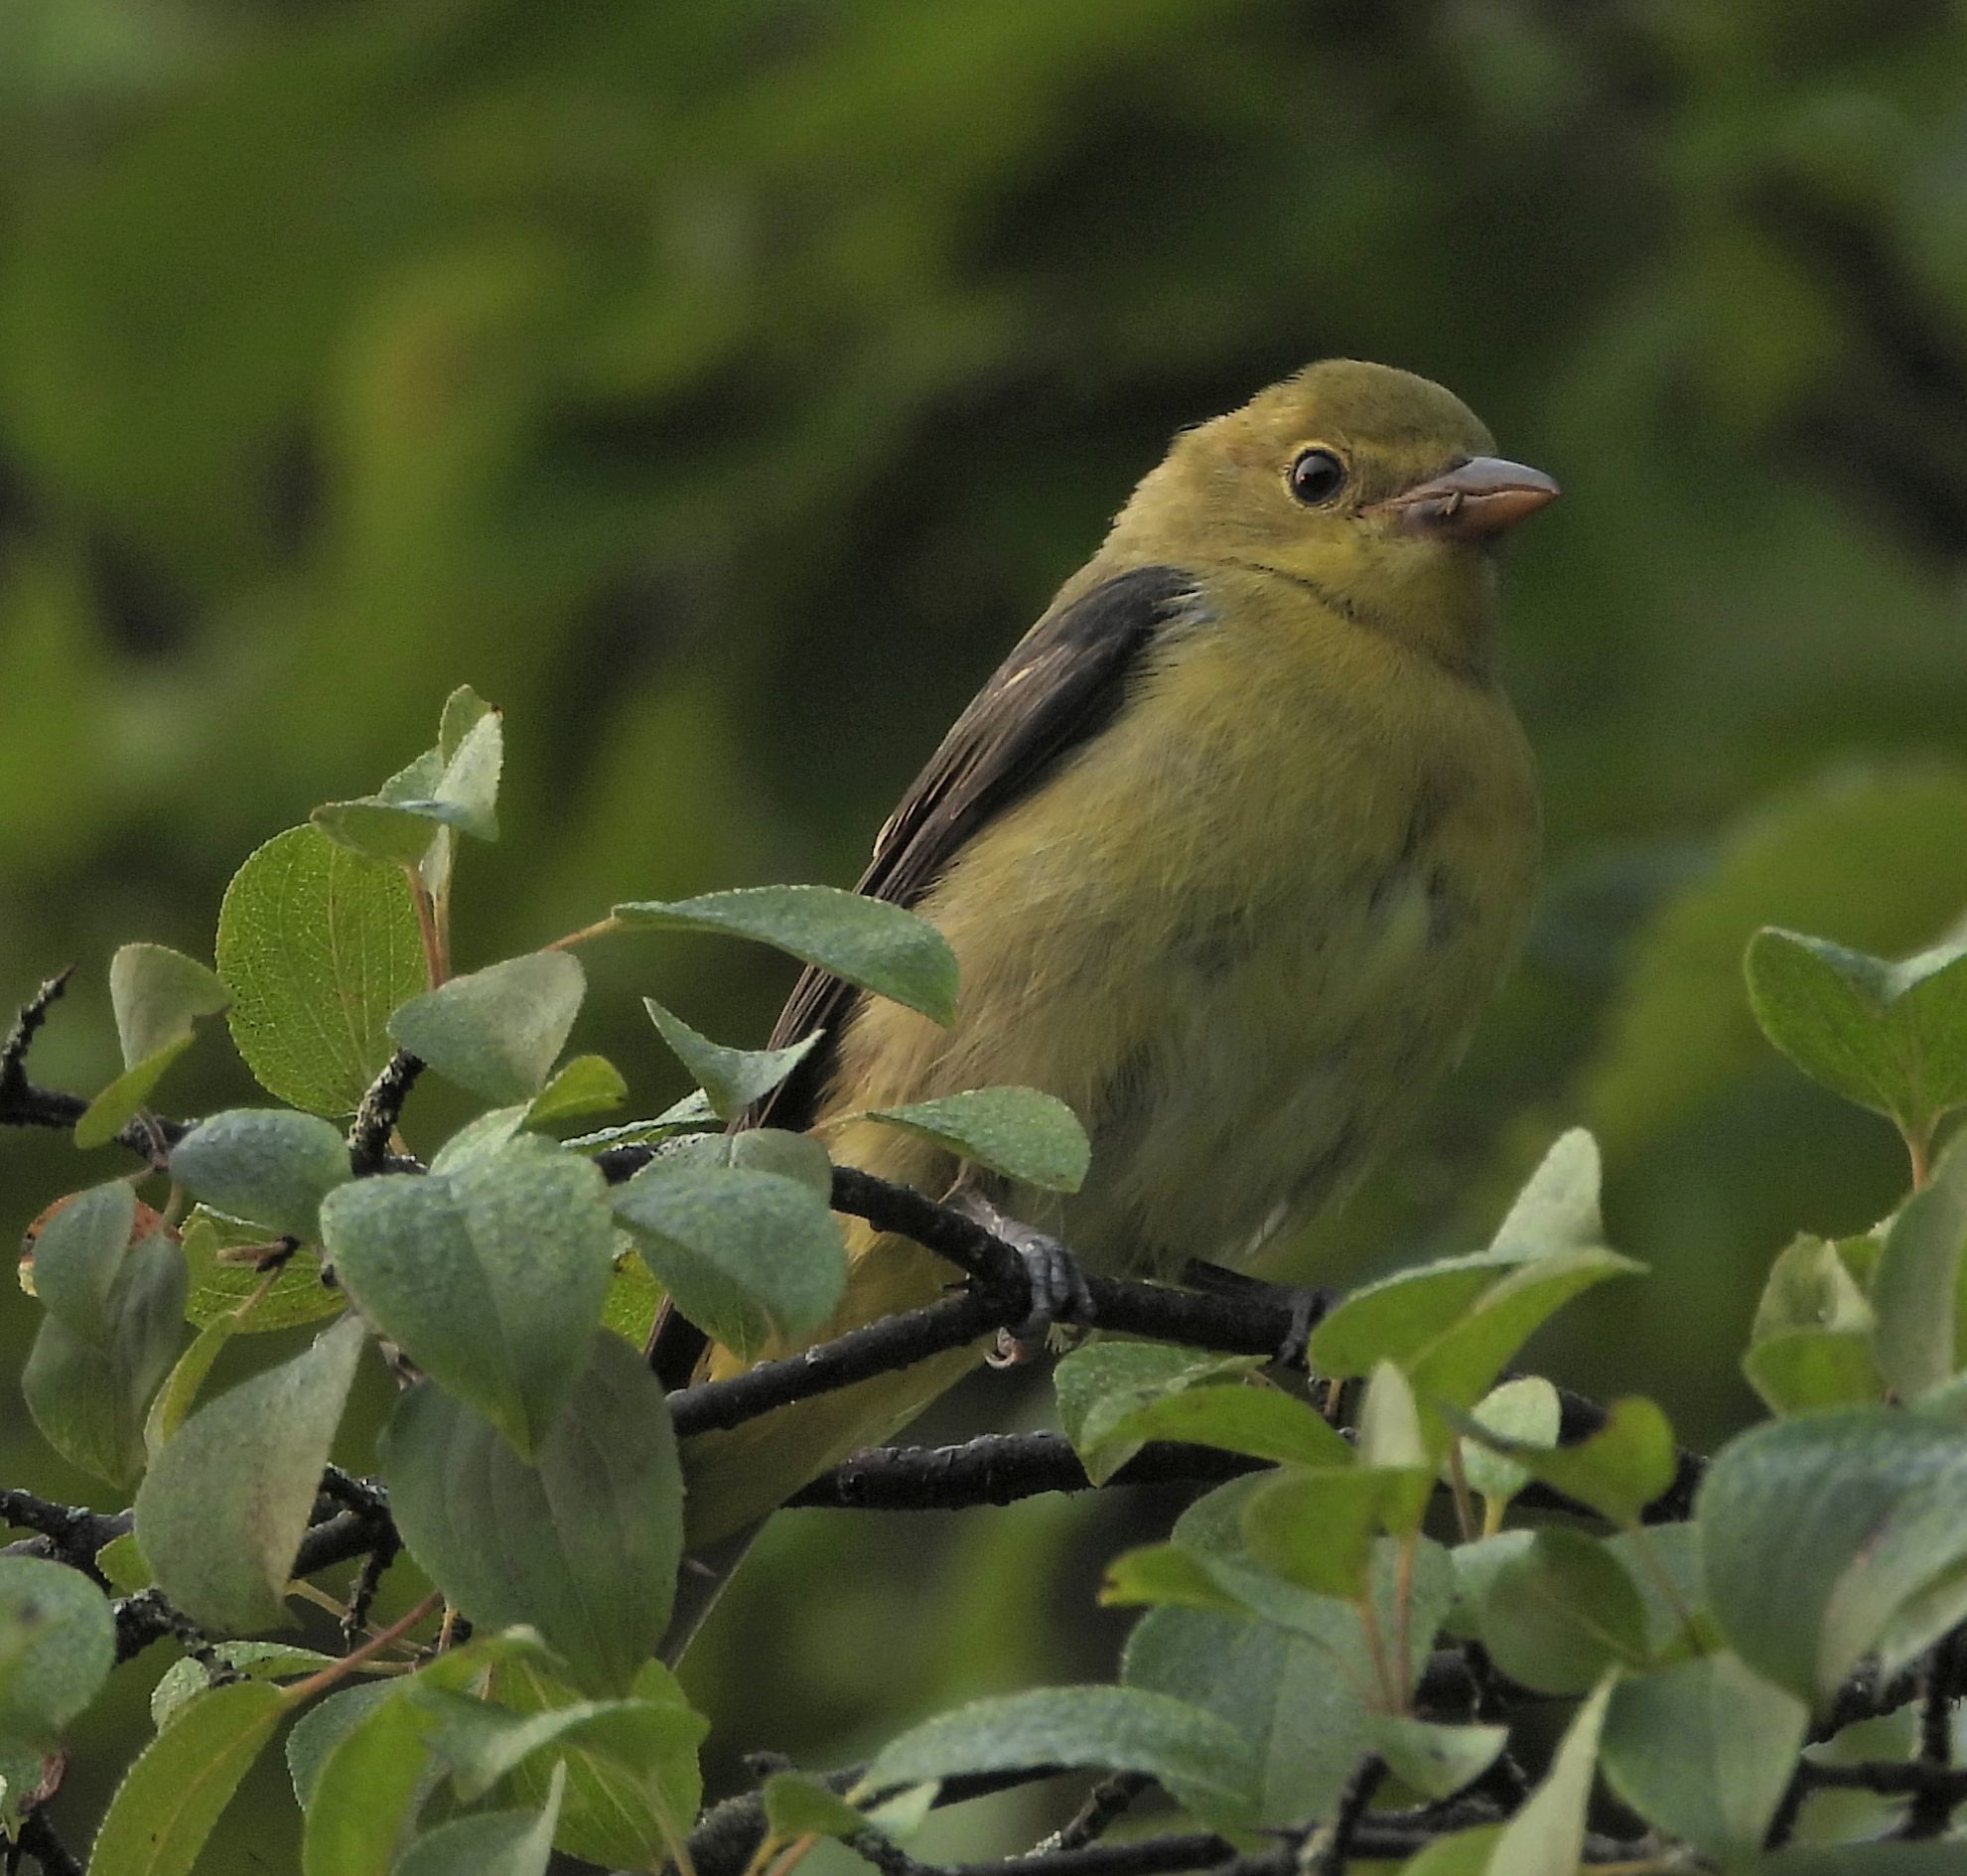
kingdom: Animalia
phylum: Chordata
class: Aves
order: Passeriformes
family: Cardinalidae
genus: Piranga
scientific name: Piranga olivacea
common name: Scarlet tanager
